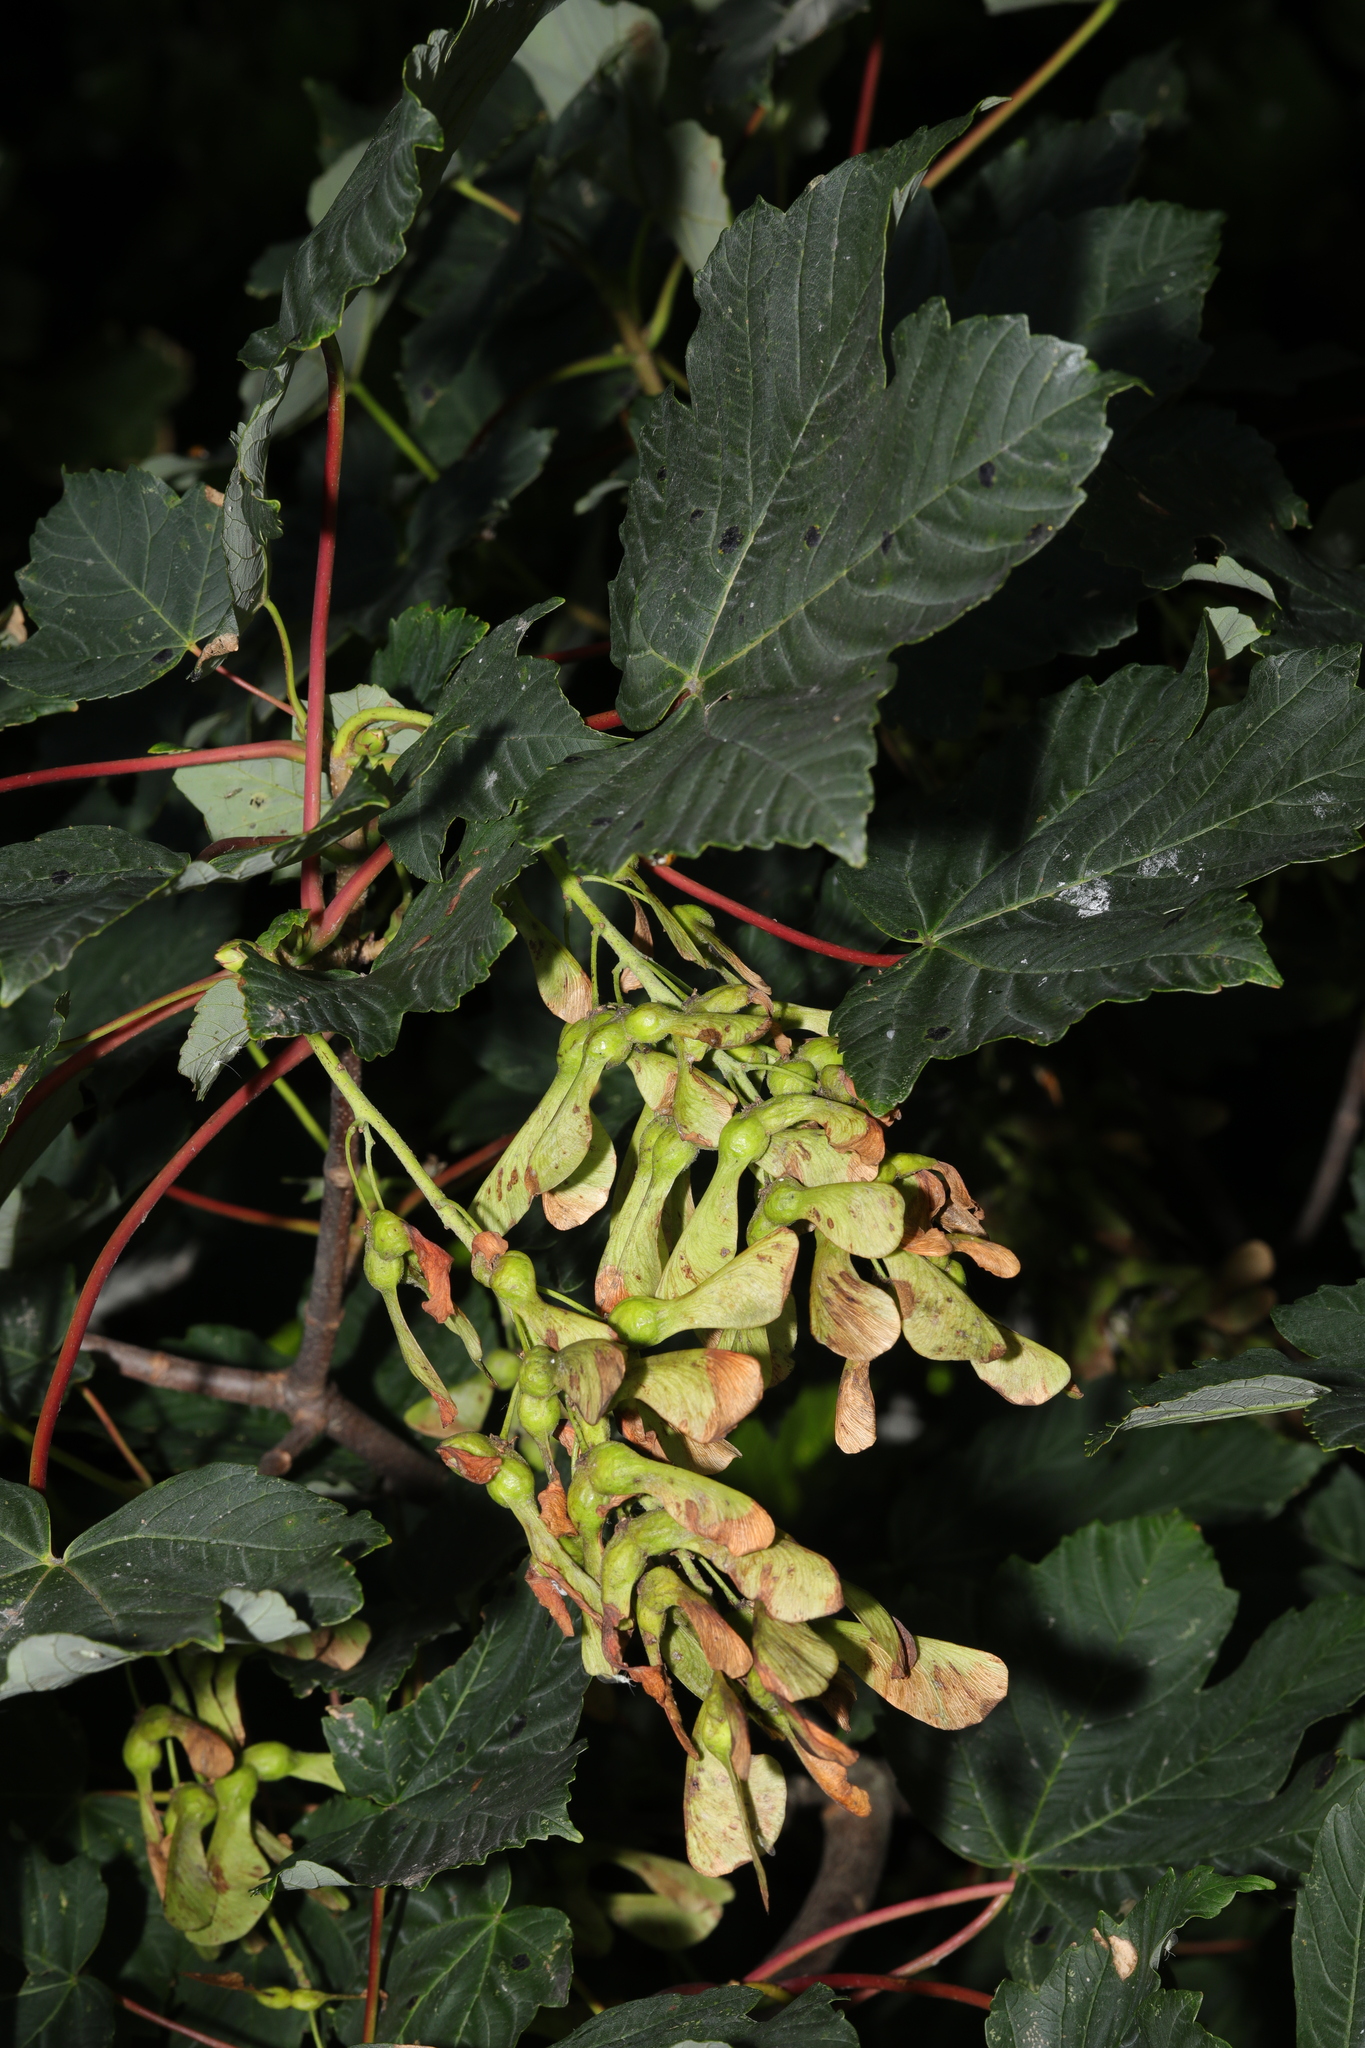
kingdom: Plantae
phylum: Tracheophyta
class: Magnoliopsida
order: Sapindales
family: Sapindaceae
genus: Acer
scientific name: Acer pseudoplatanus
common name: Sycamore
